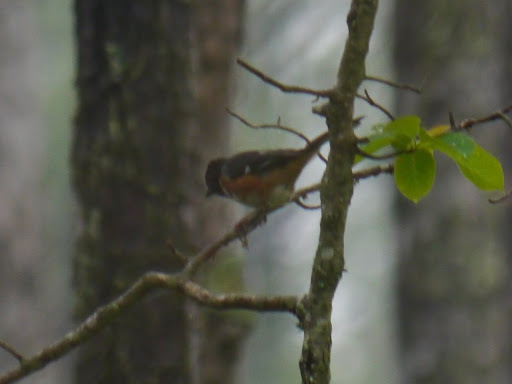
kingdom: Animalia
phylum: Chordata
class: Aves
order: Passeriformes
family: Passerellidae
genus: Pipilo
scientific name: Pipilo erythrophthalmus
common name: Eastern towhee
